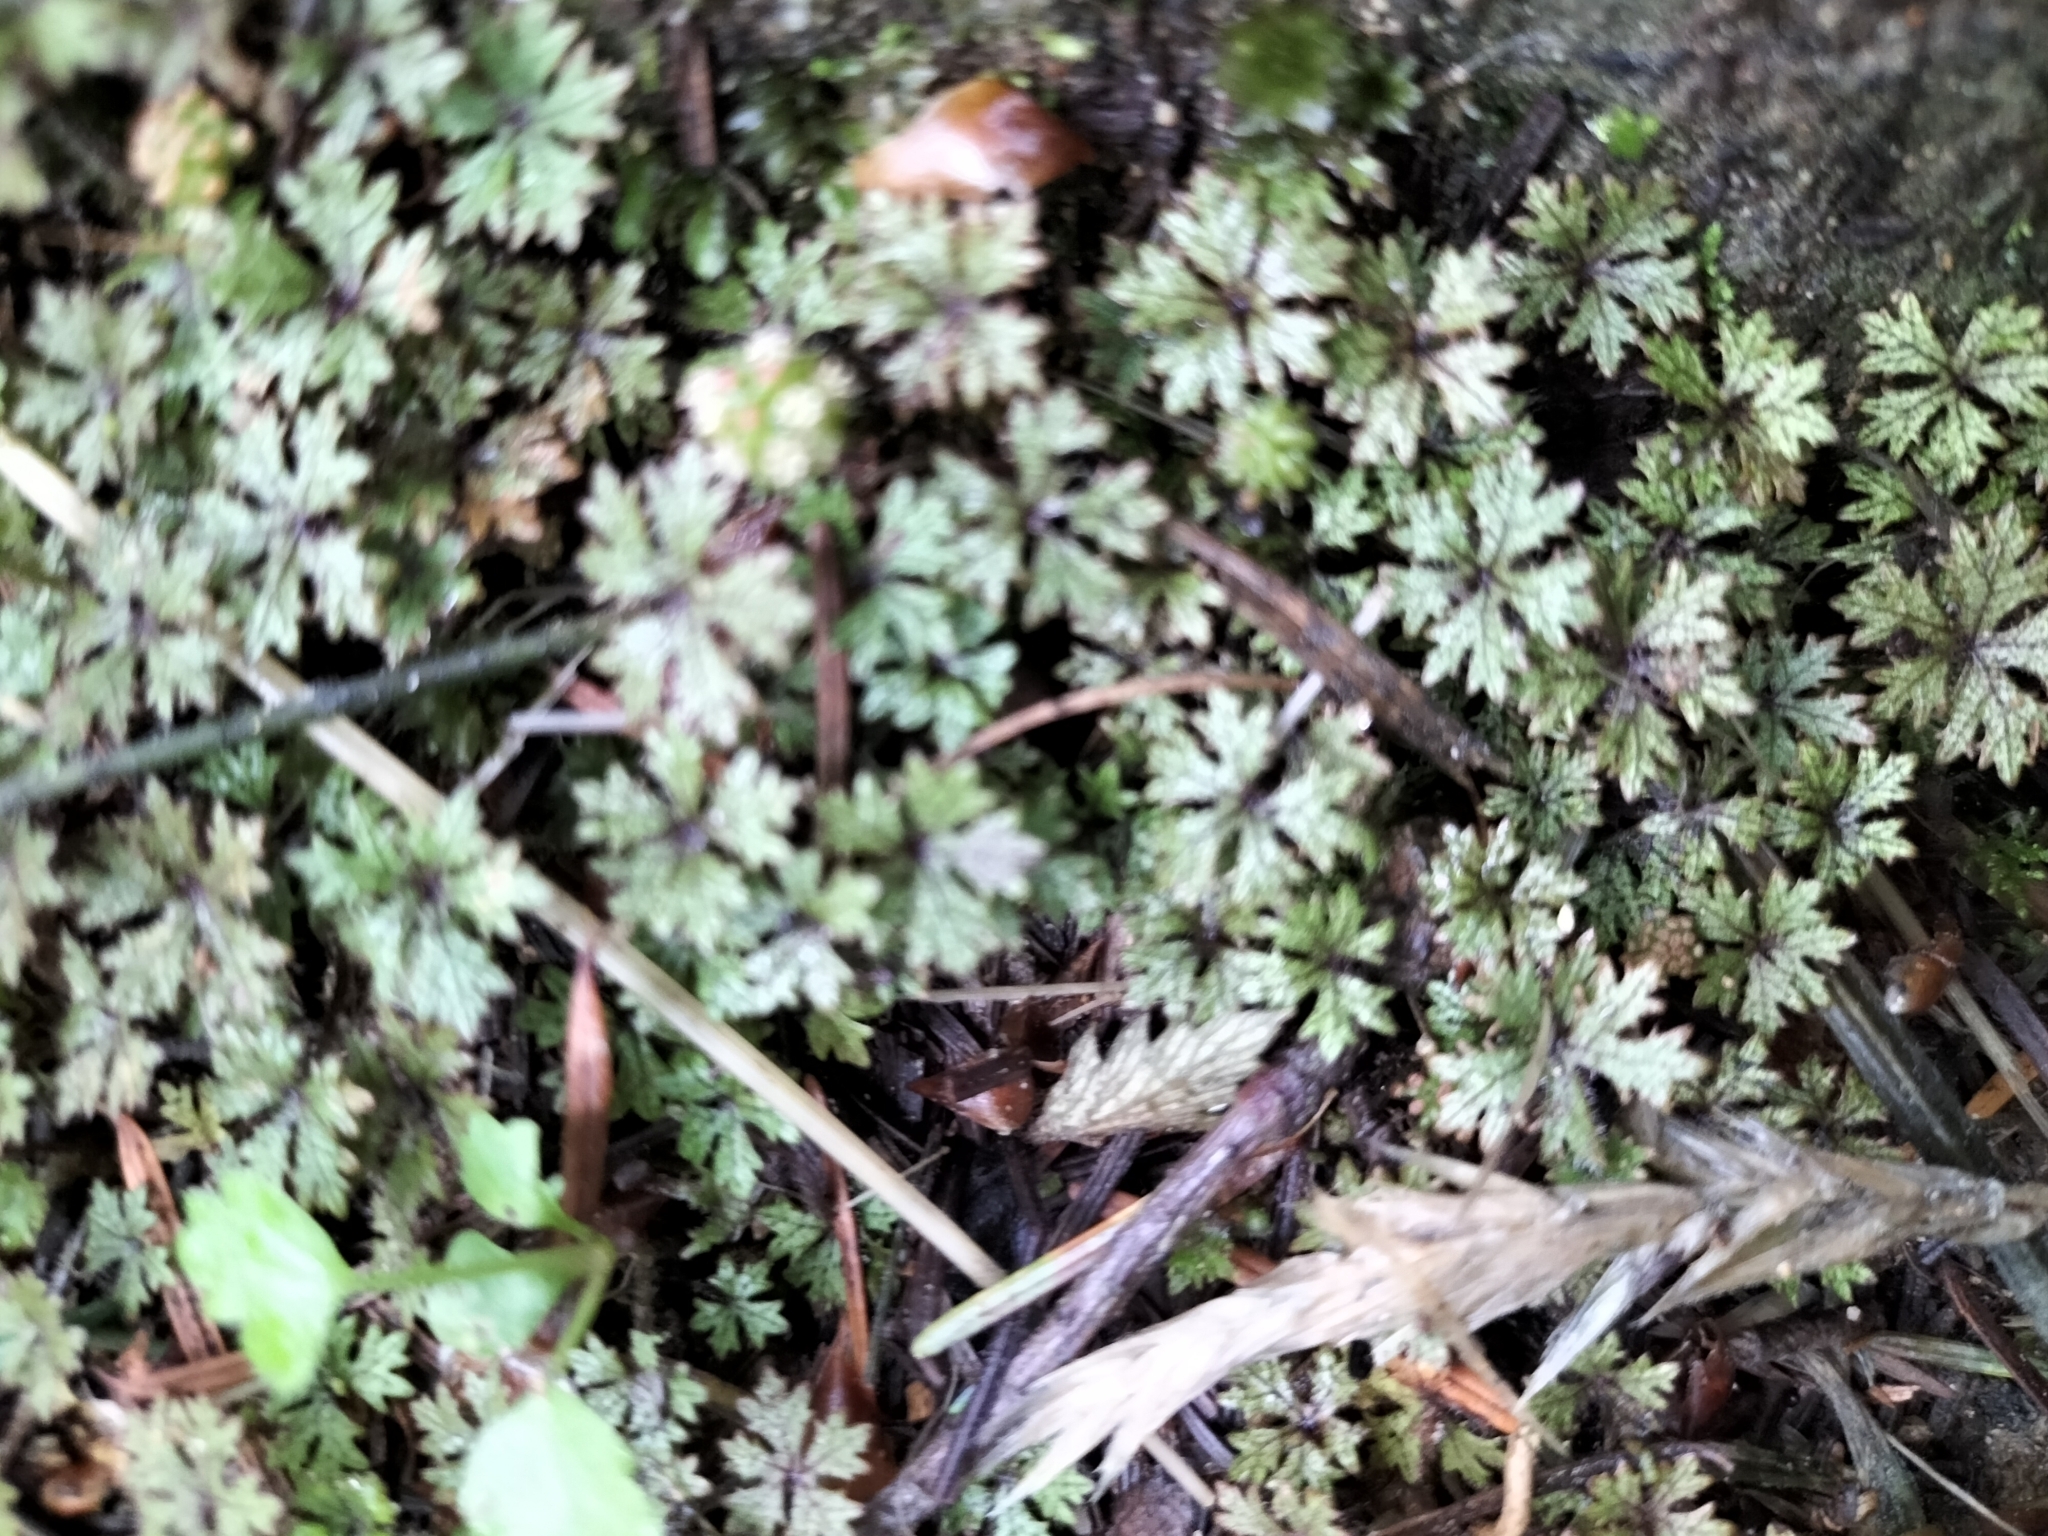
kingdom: Plantae
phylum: Tracheophyta
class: Magnoliopsida
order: Apiales
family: Araliaceae
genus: Hydrocotyle
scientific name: Hydrocotyle dissecta
